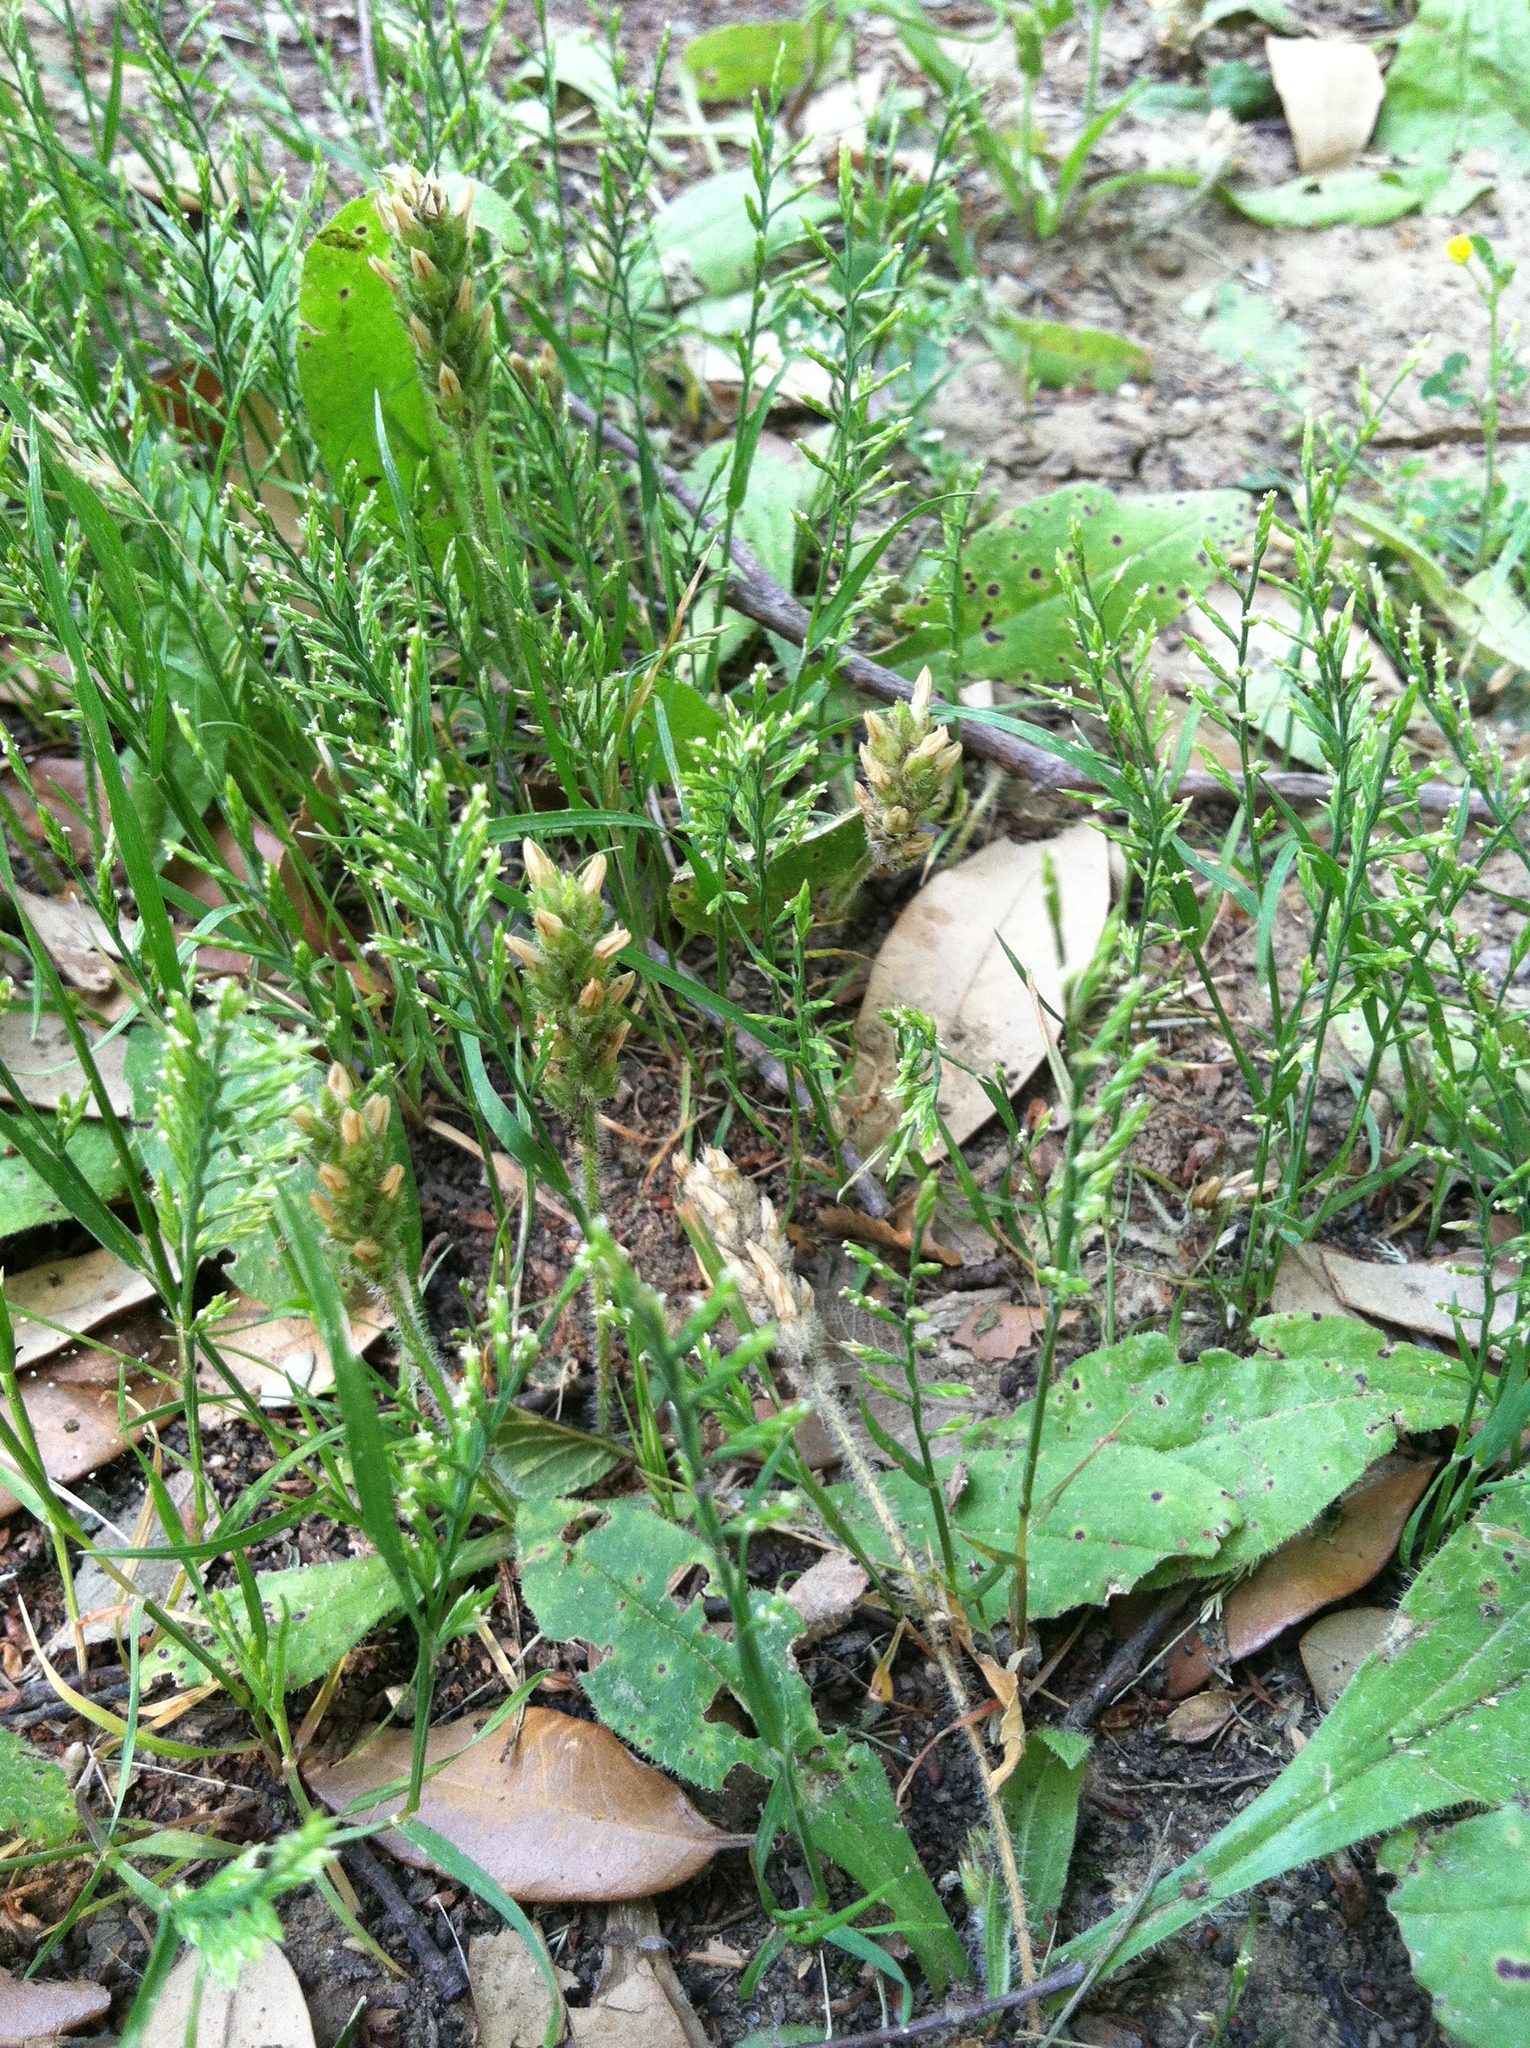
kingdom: Plantae
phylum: Tracheophyta
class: Liliopsida
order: Poales
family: Poaceae
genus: Catapodium
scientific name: Catapodium rigidum
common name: Fern-grass
